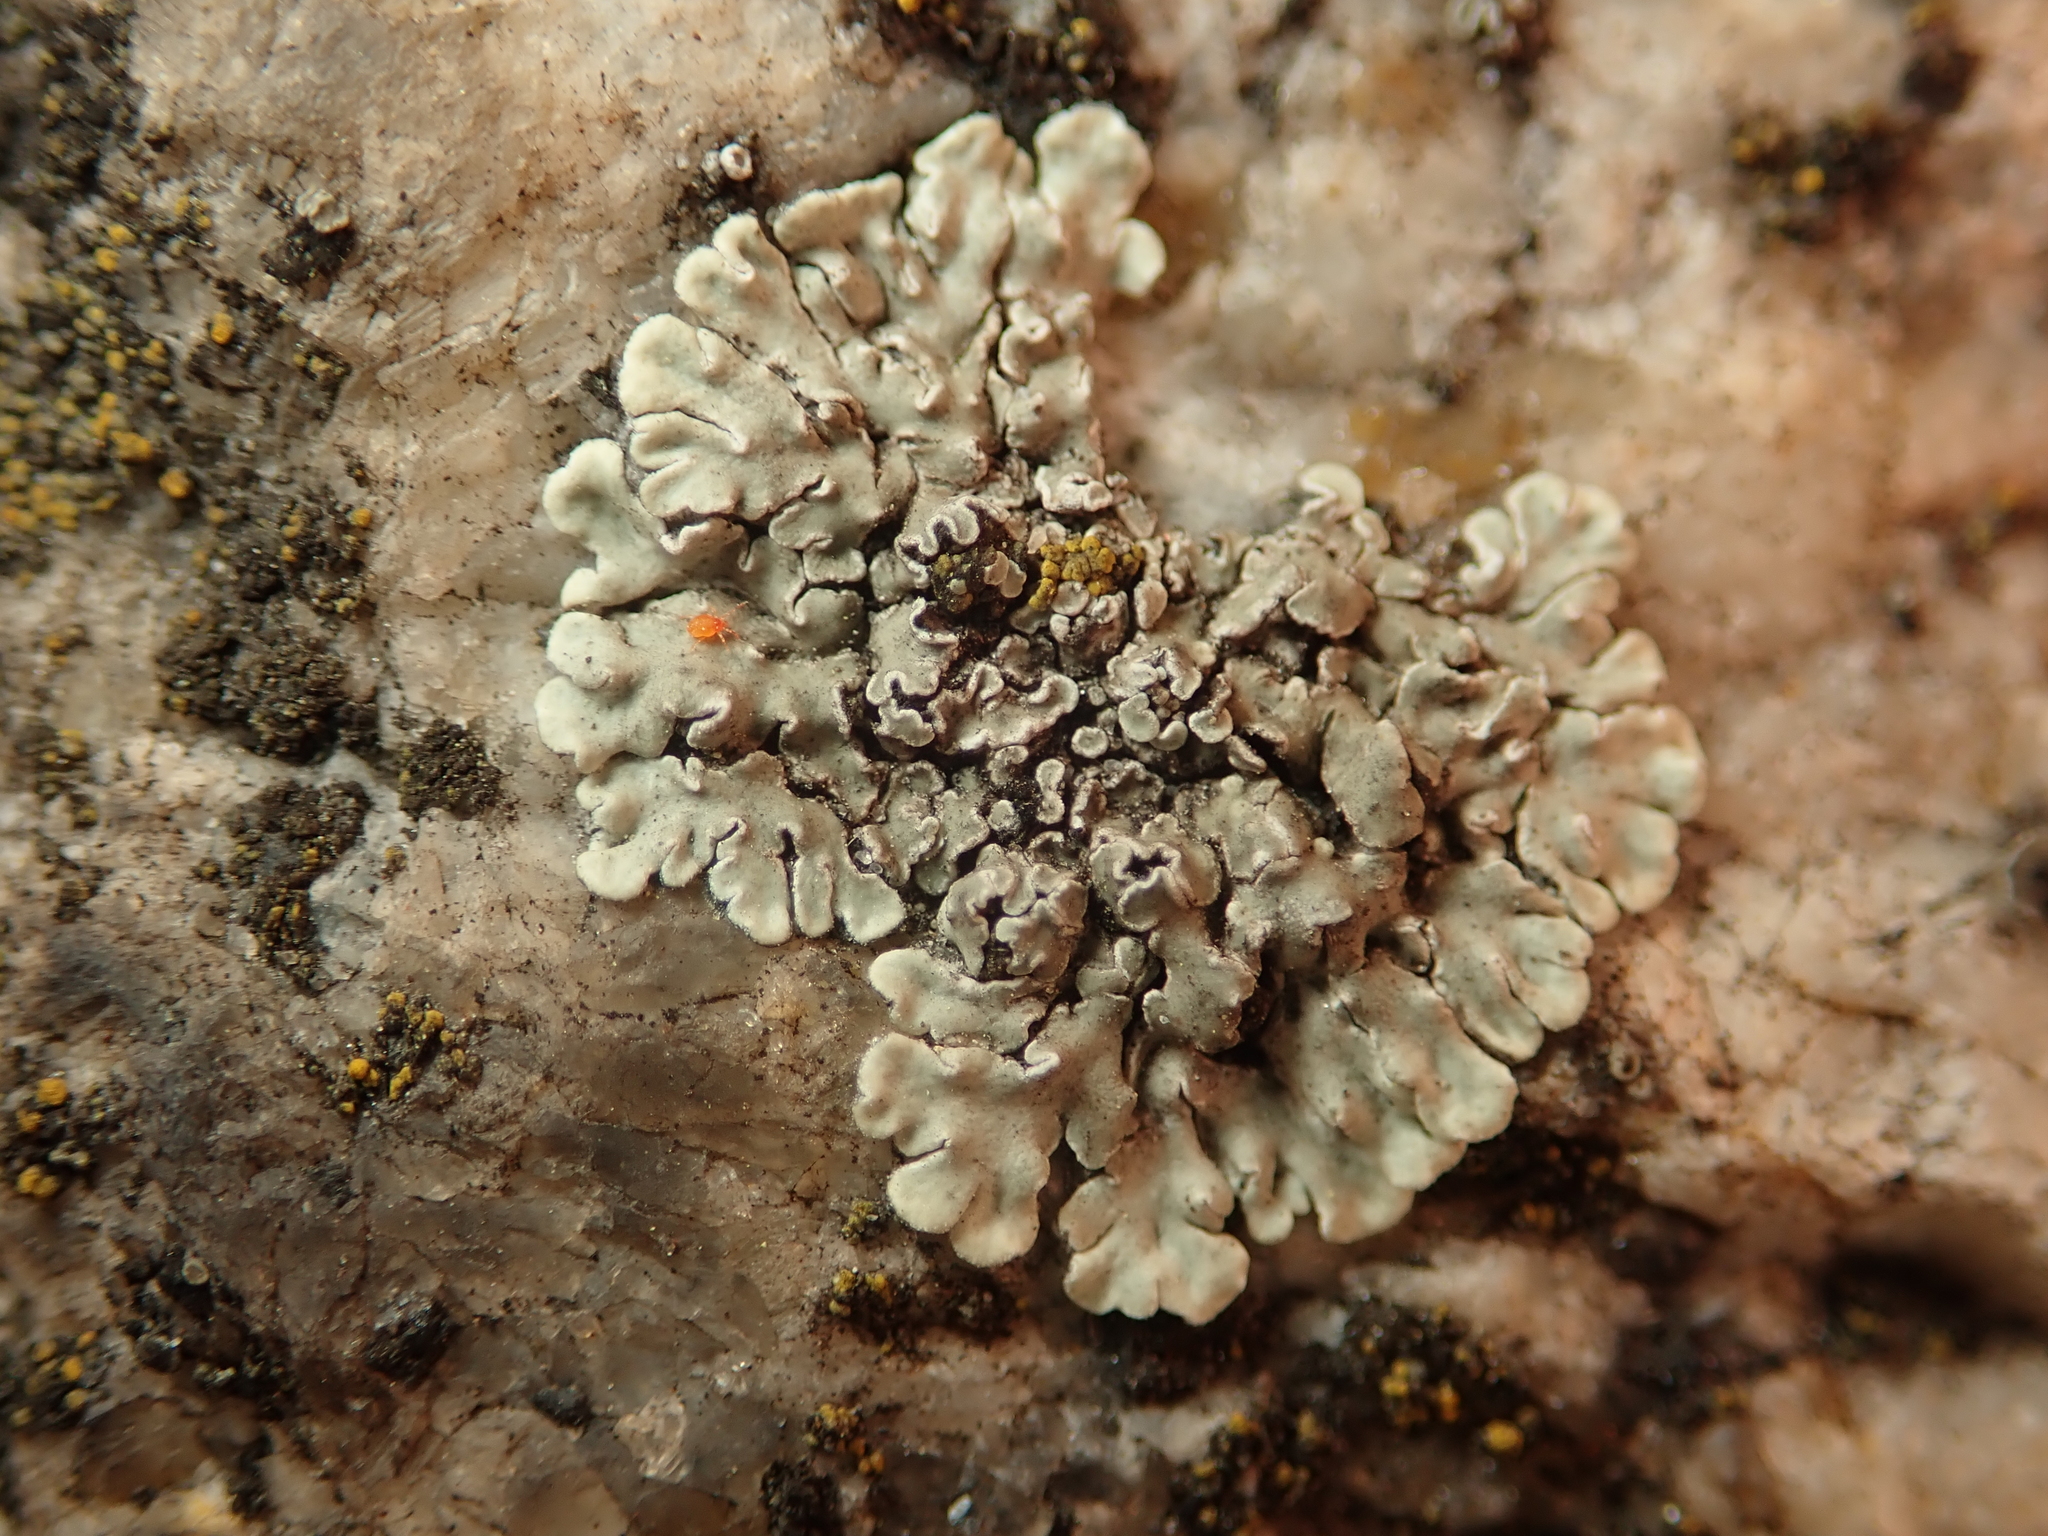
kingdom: Fungi
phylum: Ascomycota
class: Lecanoromycetes
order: Lecanorales
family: Lecanoraceae
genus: Protoparmeliopsis
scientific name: Protoparmeliopsis muralis
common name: Stonewall rim lichen
